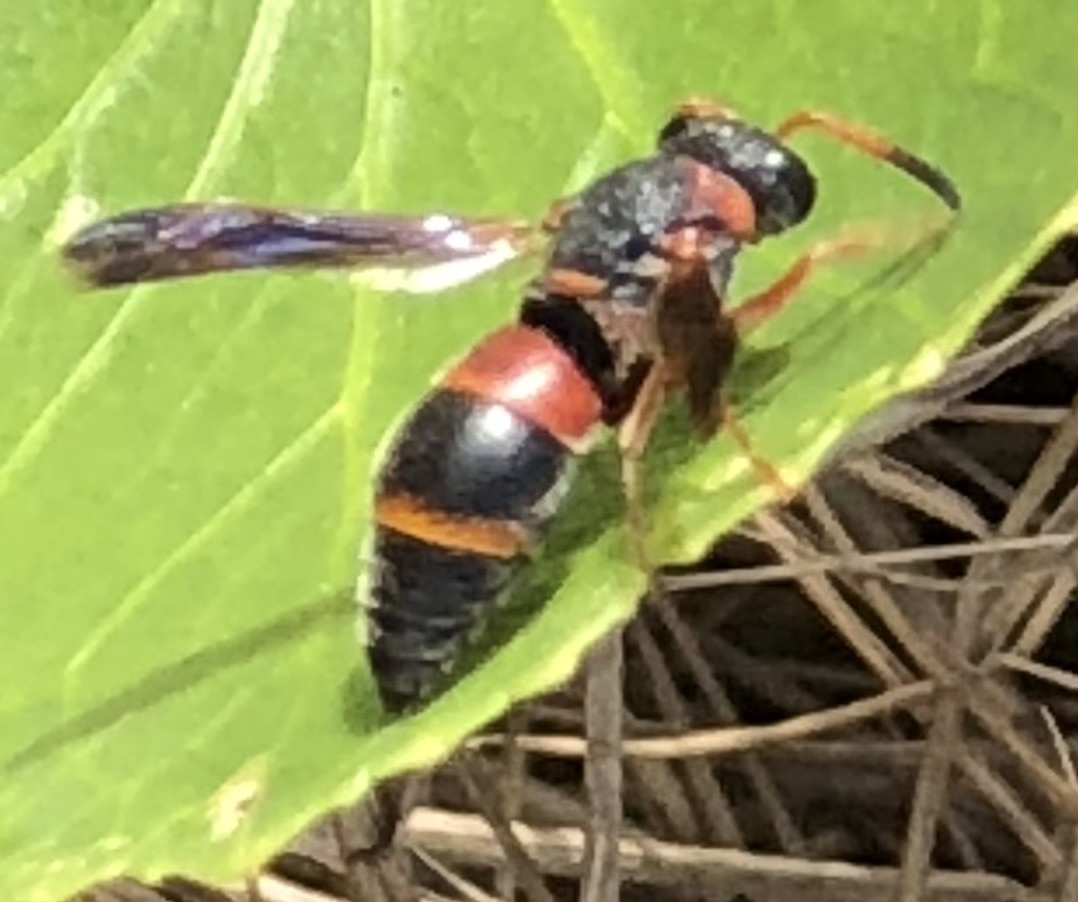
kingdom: Animalia
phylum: Arthropoda
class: Insecta
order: Hymenoptera
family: Eumenidae
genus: Pachodynerus
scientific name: Pachodynerus erynnis
